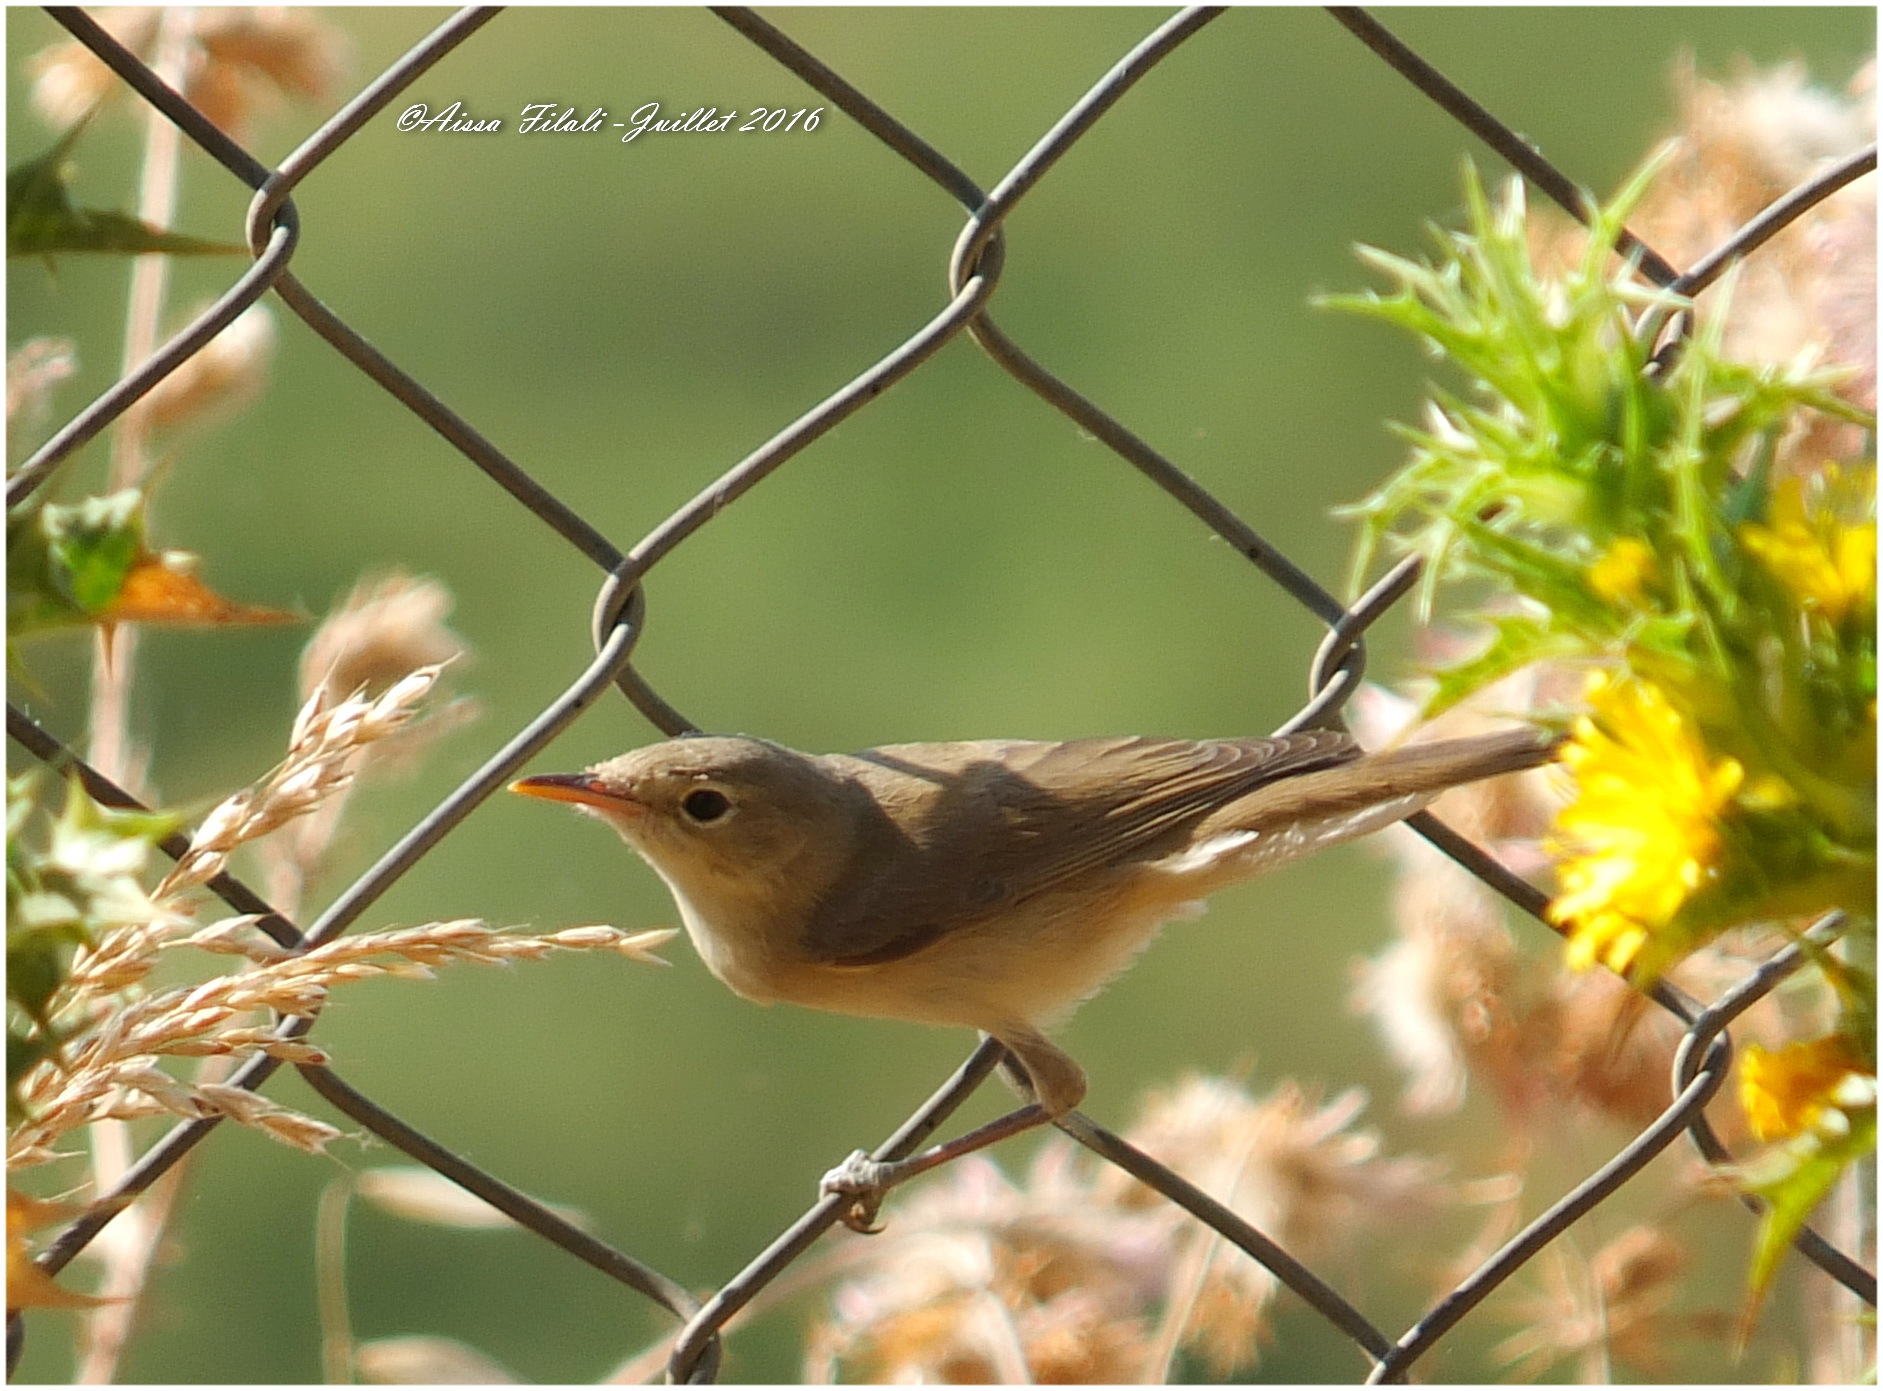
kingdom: Animalia
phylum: Chordata
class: Aves
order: Passeriformes
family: Acrocephalidae
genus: Iduna
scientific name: Iduna opaca
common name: Western olivaceous warbler
